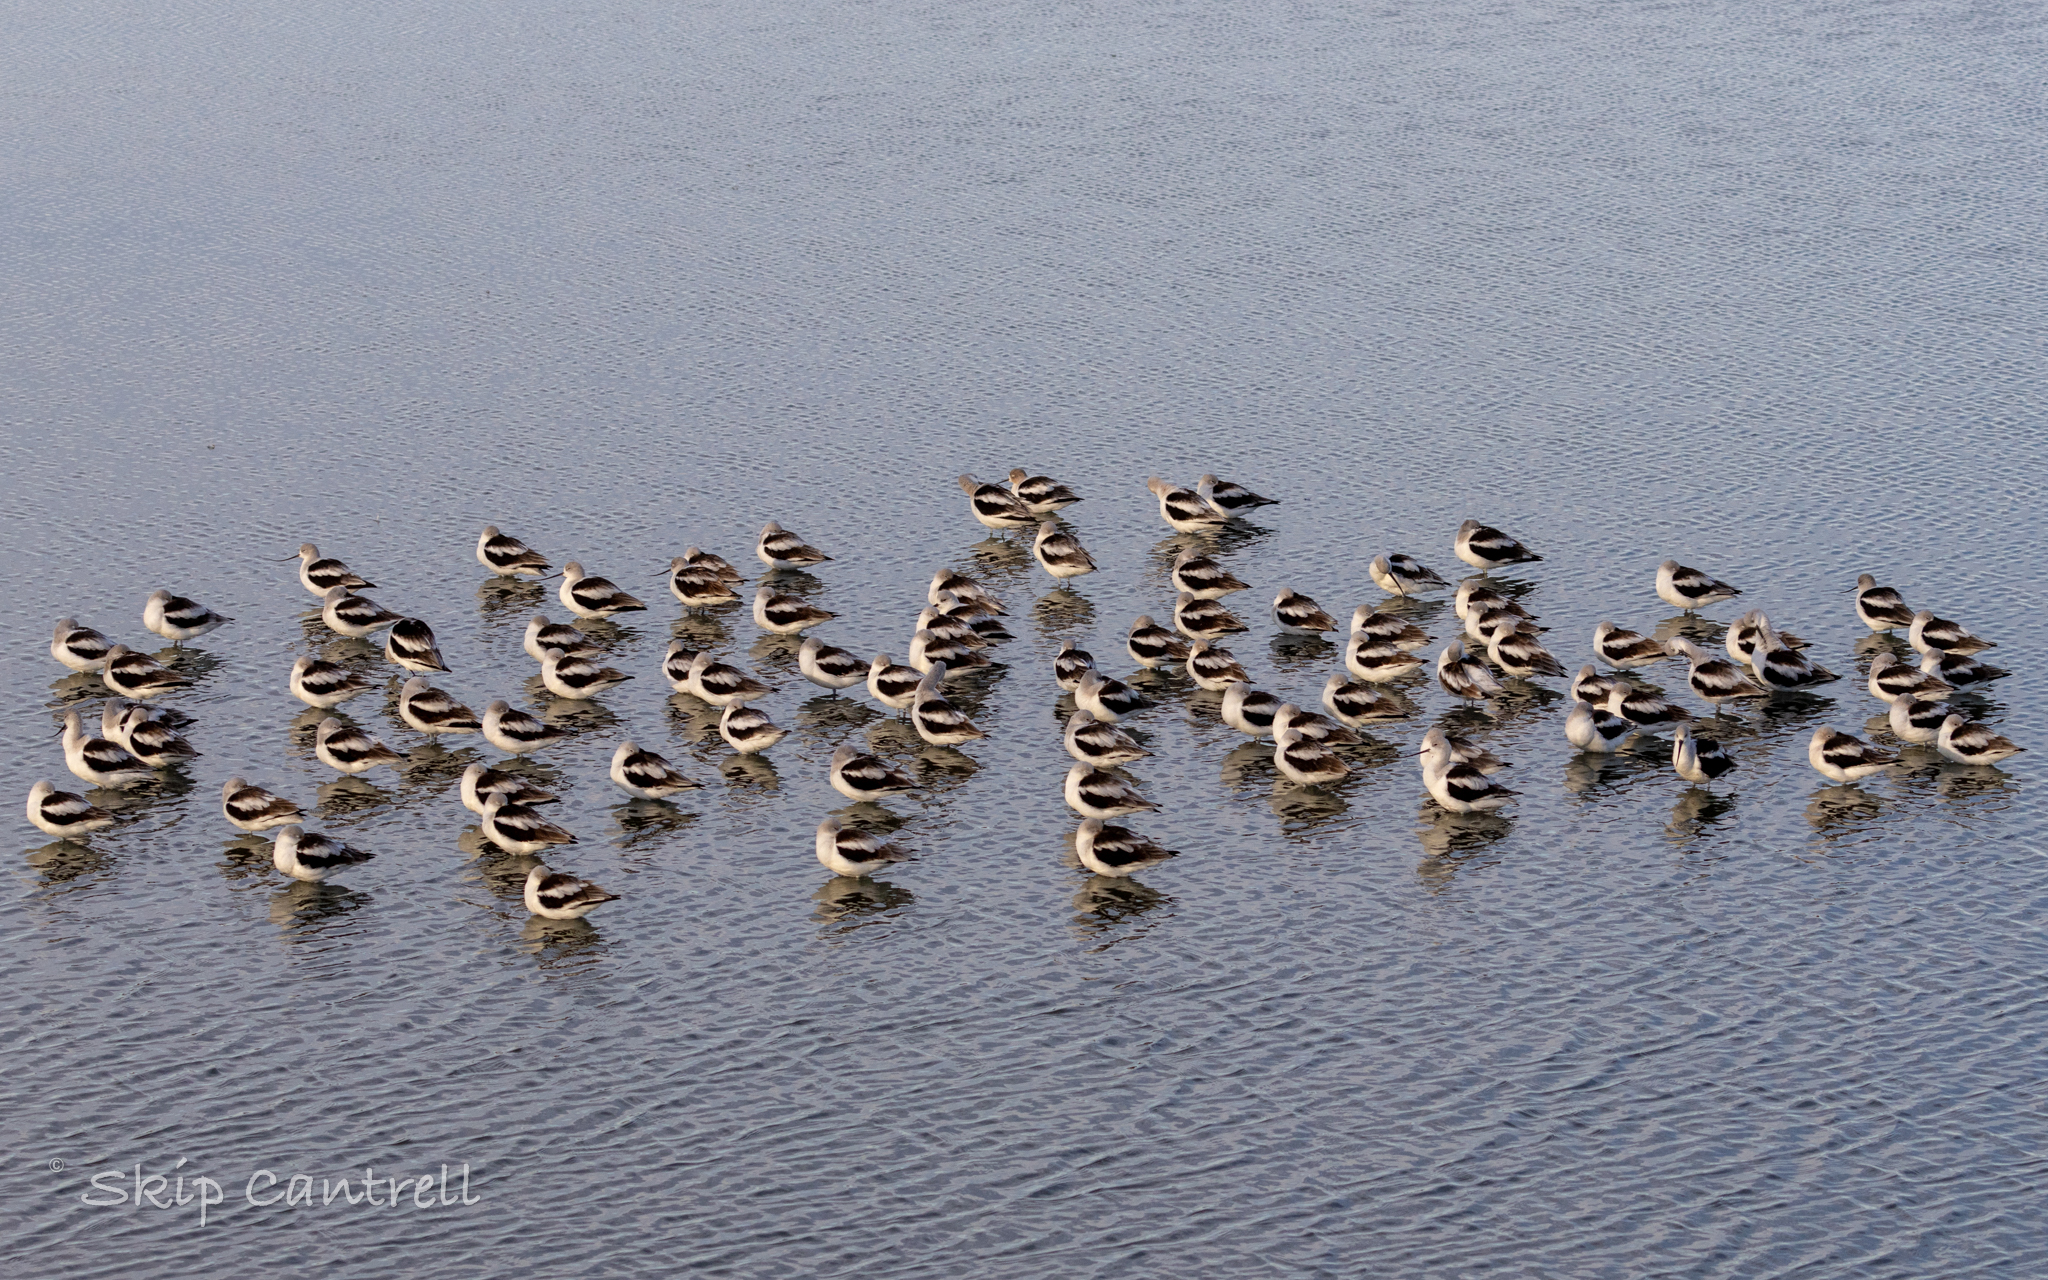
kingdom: Animalia
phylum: Chordata
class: Aves
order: Charadriiformes
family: Recurvirostridae
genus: Recurvirostra
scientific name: Recurvirostra americana
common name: American avocet
